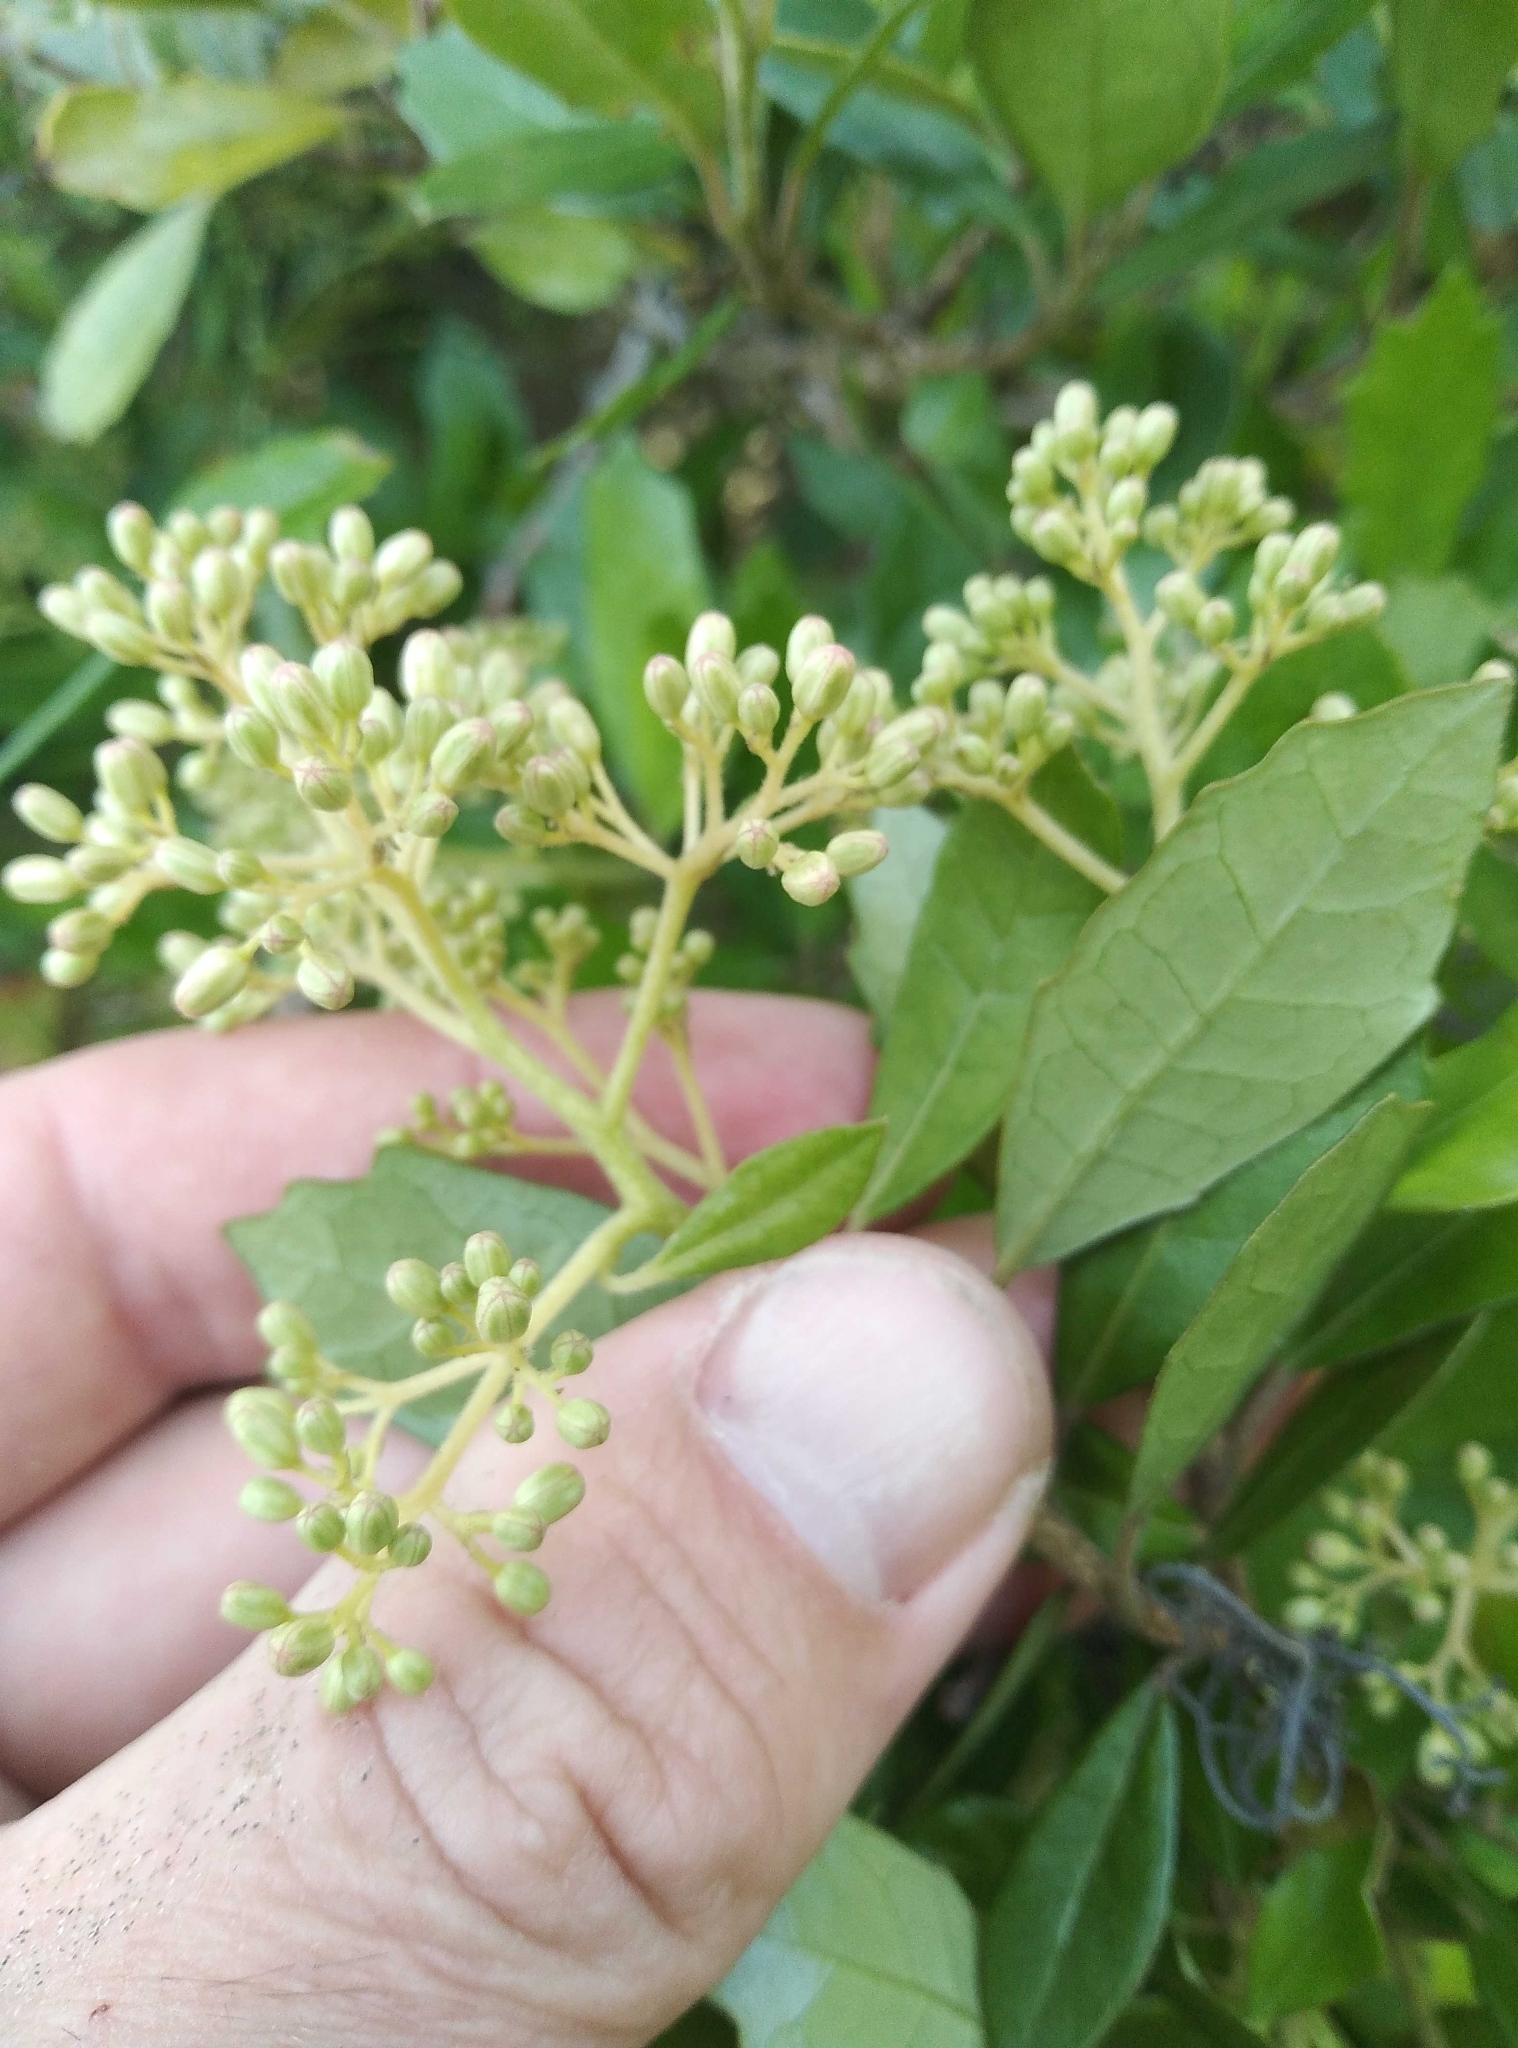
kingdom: Plantae
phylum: Tracheophyta
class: Magnoliopsida
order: Apiales
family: Pennantiaceae
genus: Pennantia
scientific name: Pennantia corymbosa
